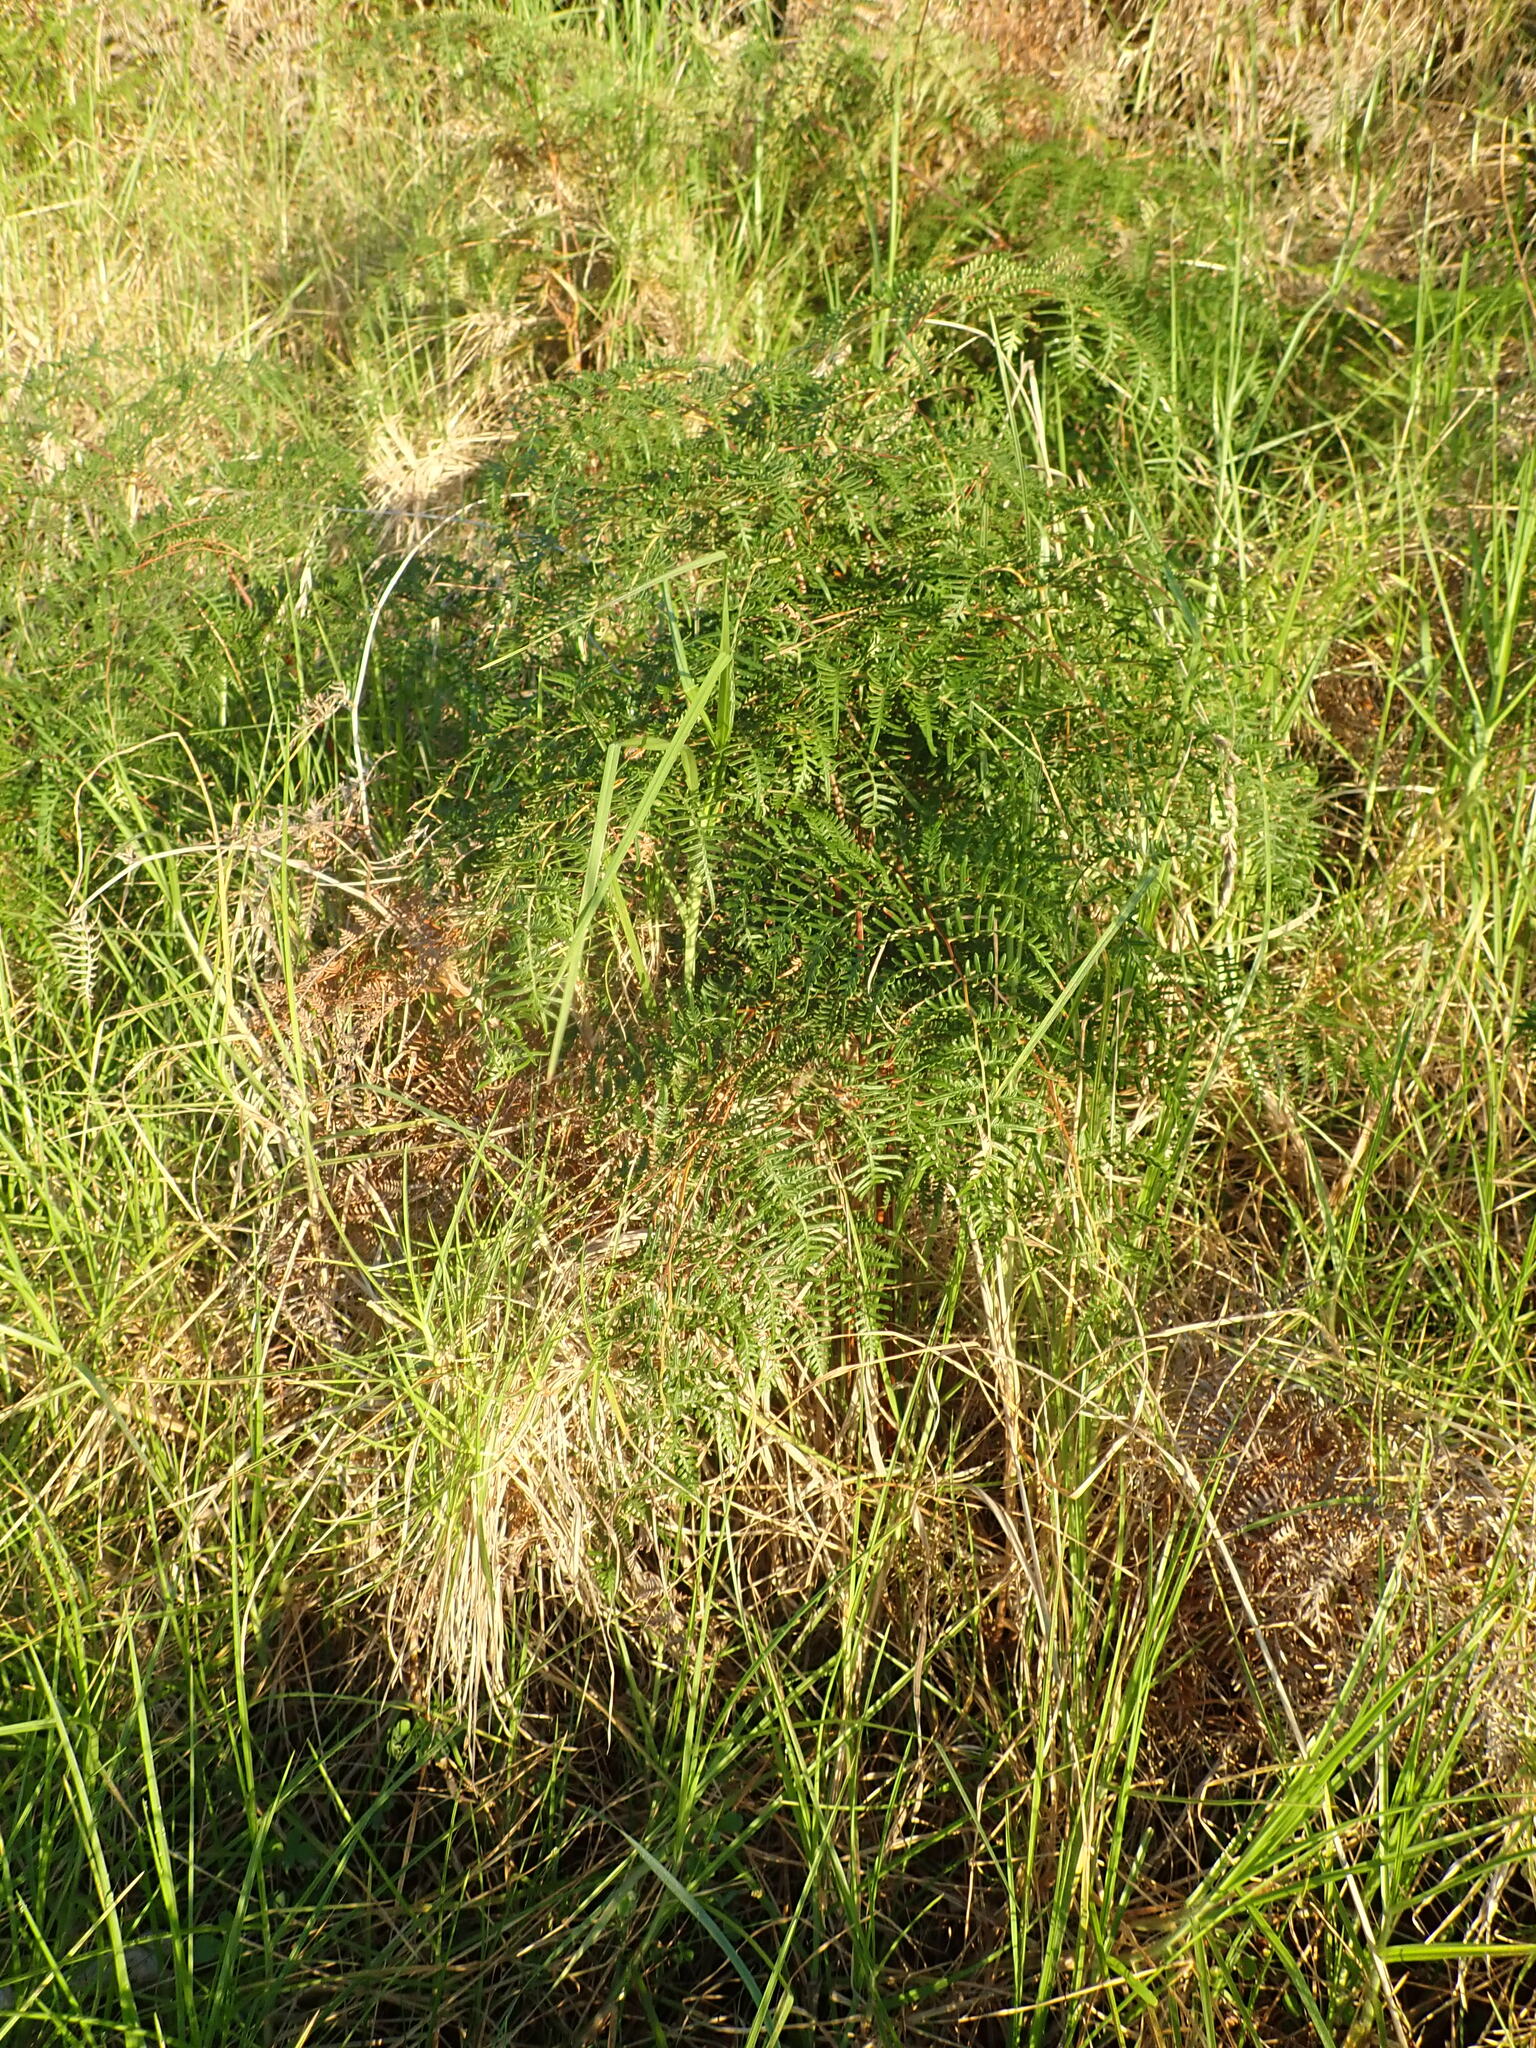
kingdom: Plantae
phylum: Tracheophyta
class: Polypodiopsida
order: Polypodiales
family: Dennstaedtiaceae
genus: Pteridium
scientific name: Pteridium esculentum
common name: Bracken fern
